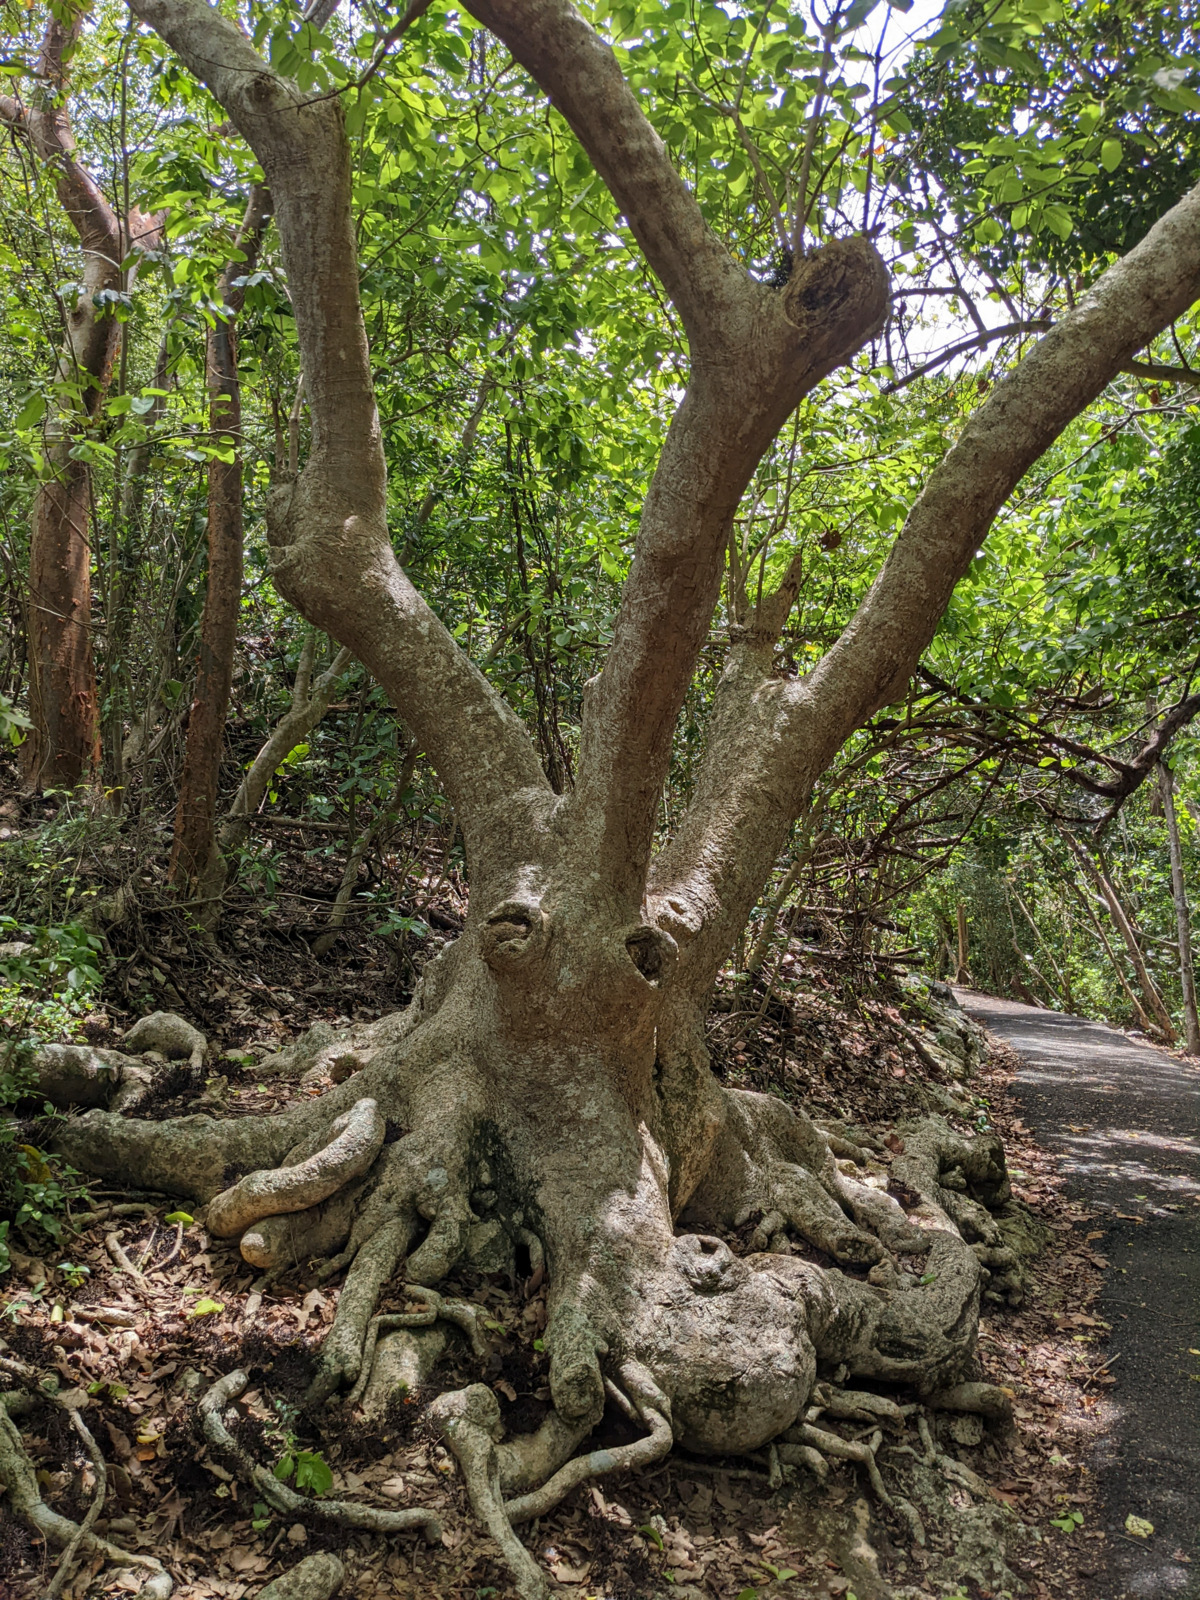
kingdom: Plantae
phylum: Tracheophyta
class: Magnoliopsida
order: Caryophyllales
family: Nyctaginaceae
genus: Pisonia
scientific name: Pisonia subcordata
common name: Mampoo
